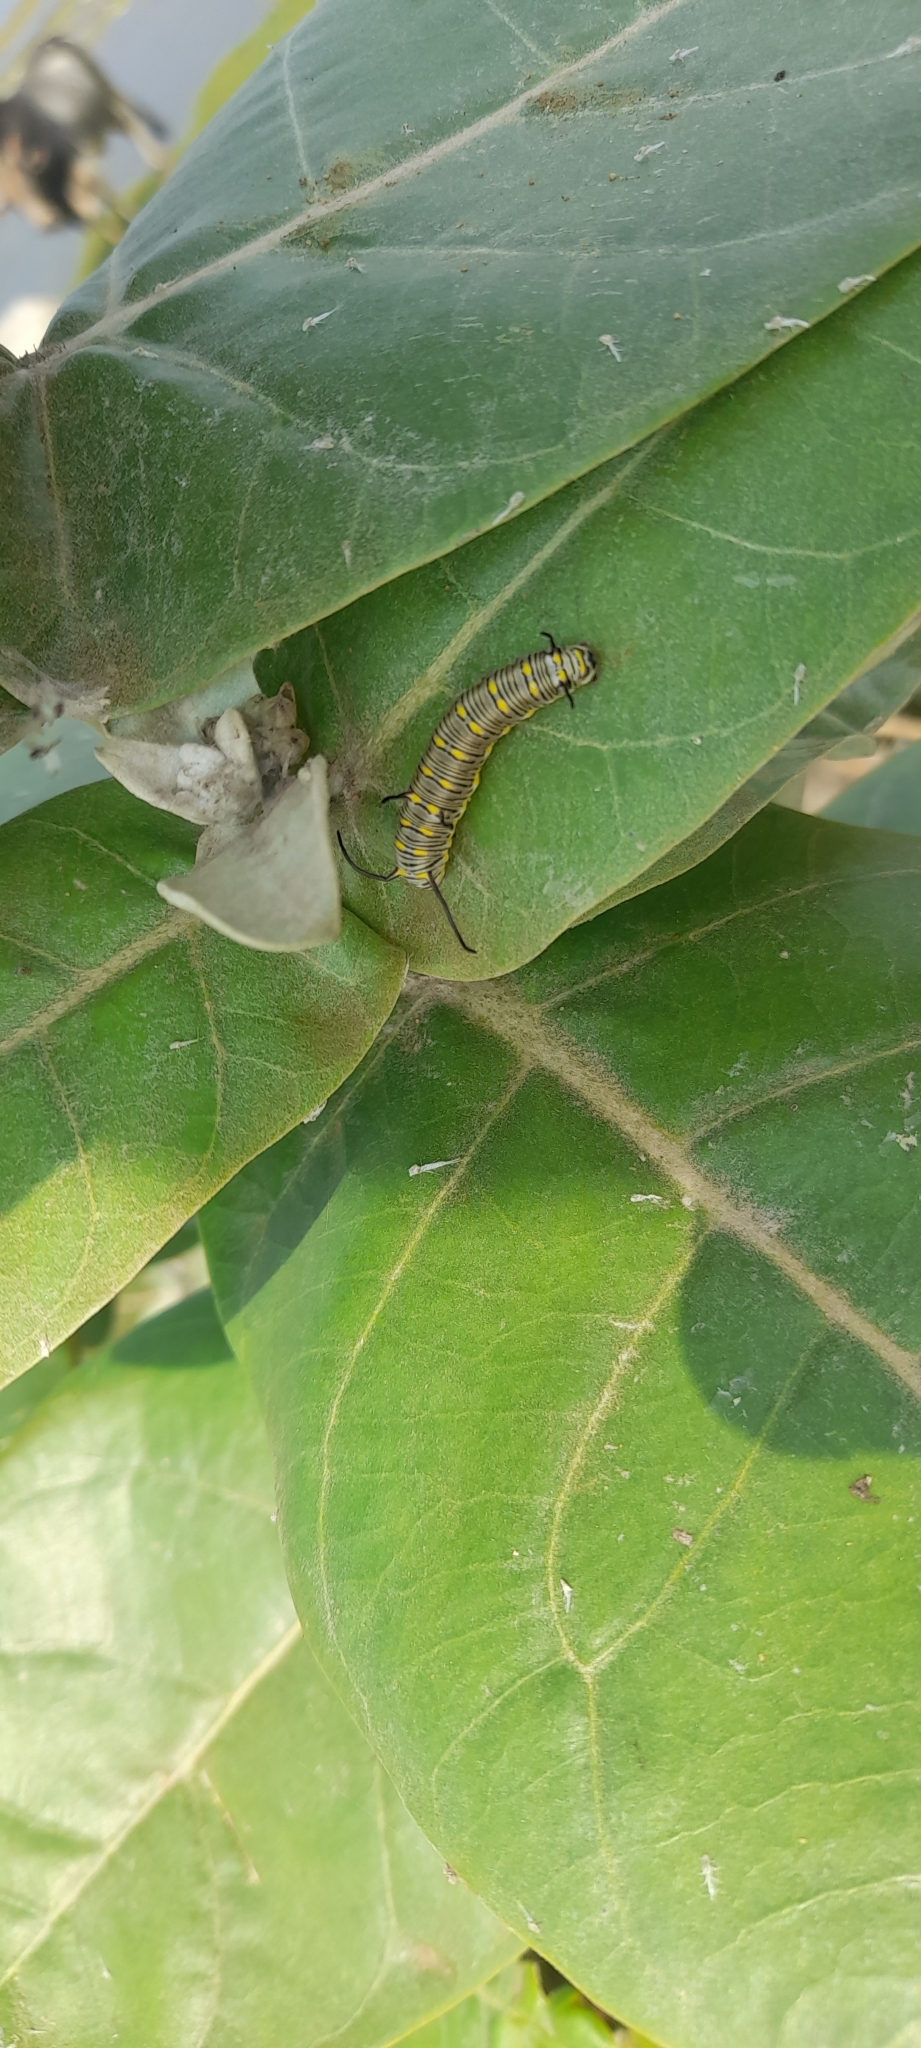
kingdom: Animalia
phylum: Arthropoda
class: Insecta
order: Lepidoptera
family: Nymphalidae
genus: Danaus
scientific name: Danaus chrysippus
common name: Plain tiger
